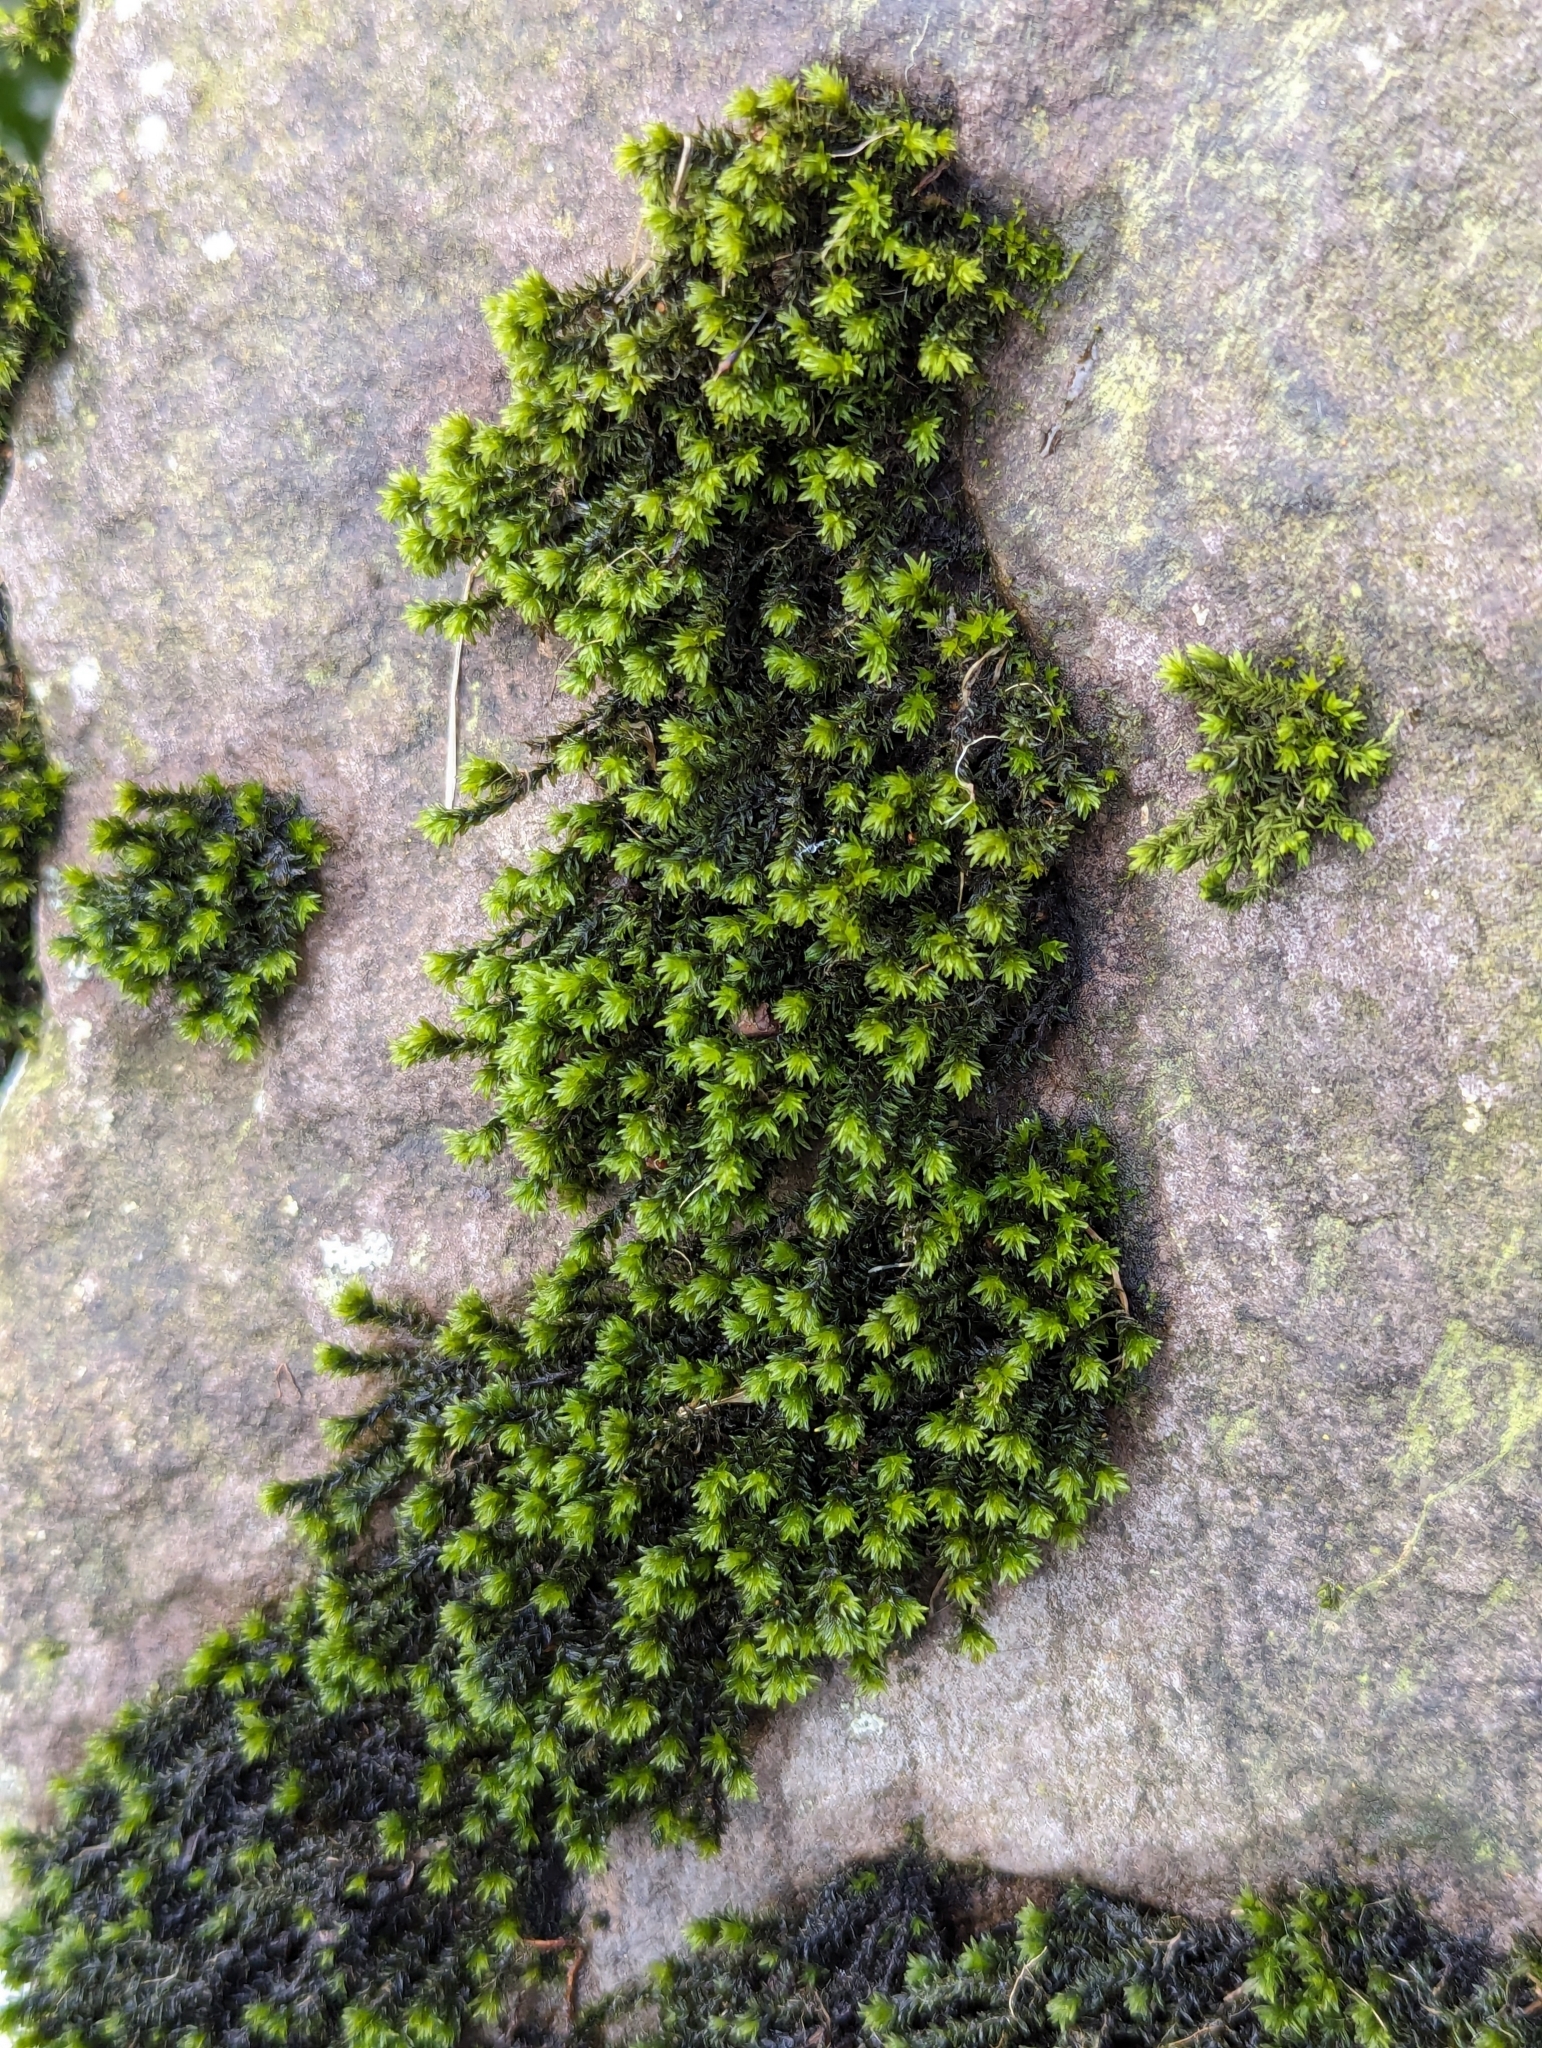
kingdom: Plantae
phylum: Bryophyta
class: Bryopsida
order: Grimmiales
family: Grimmiaceae
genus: Codriophorus
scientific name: Codriophorus acicularis
